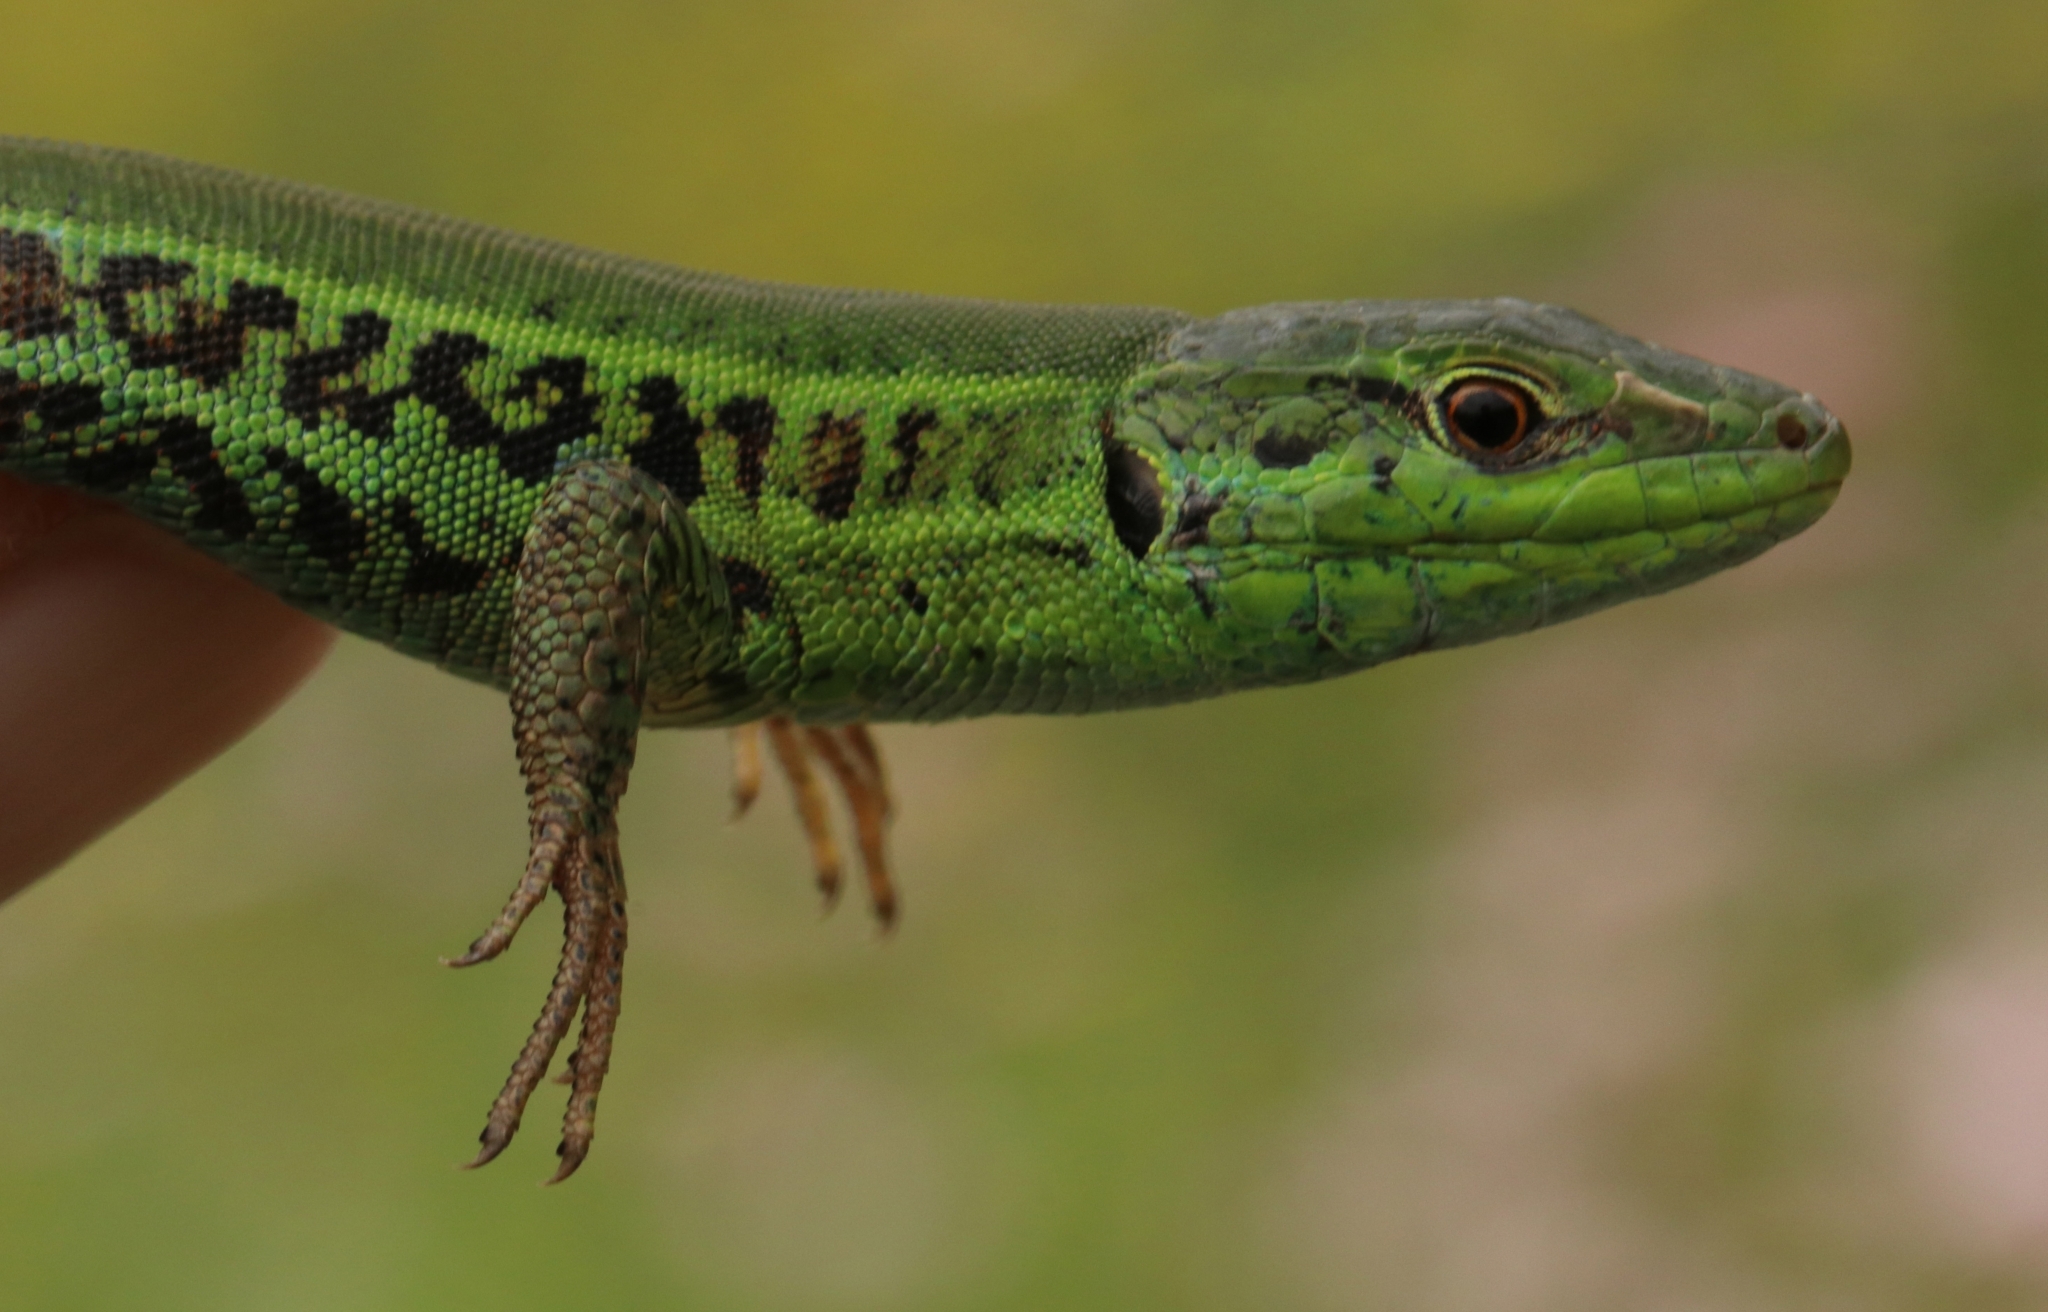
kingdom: Animalia
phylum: Chordata
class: Squamata
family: Lacertidae
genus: Podarcis
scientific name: Podarcis ionicus
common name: Ionian wall lizard
